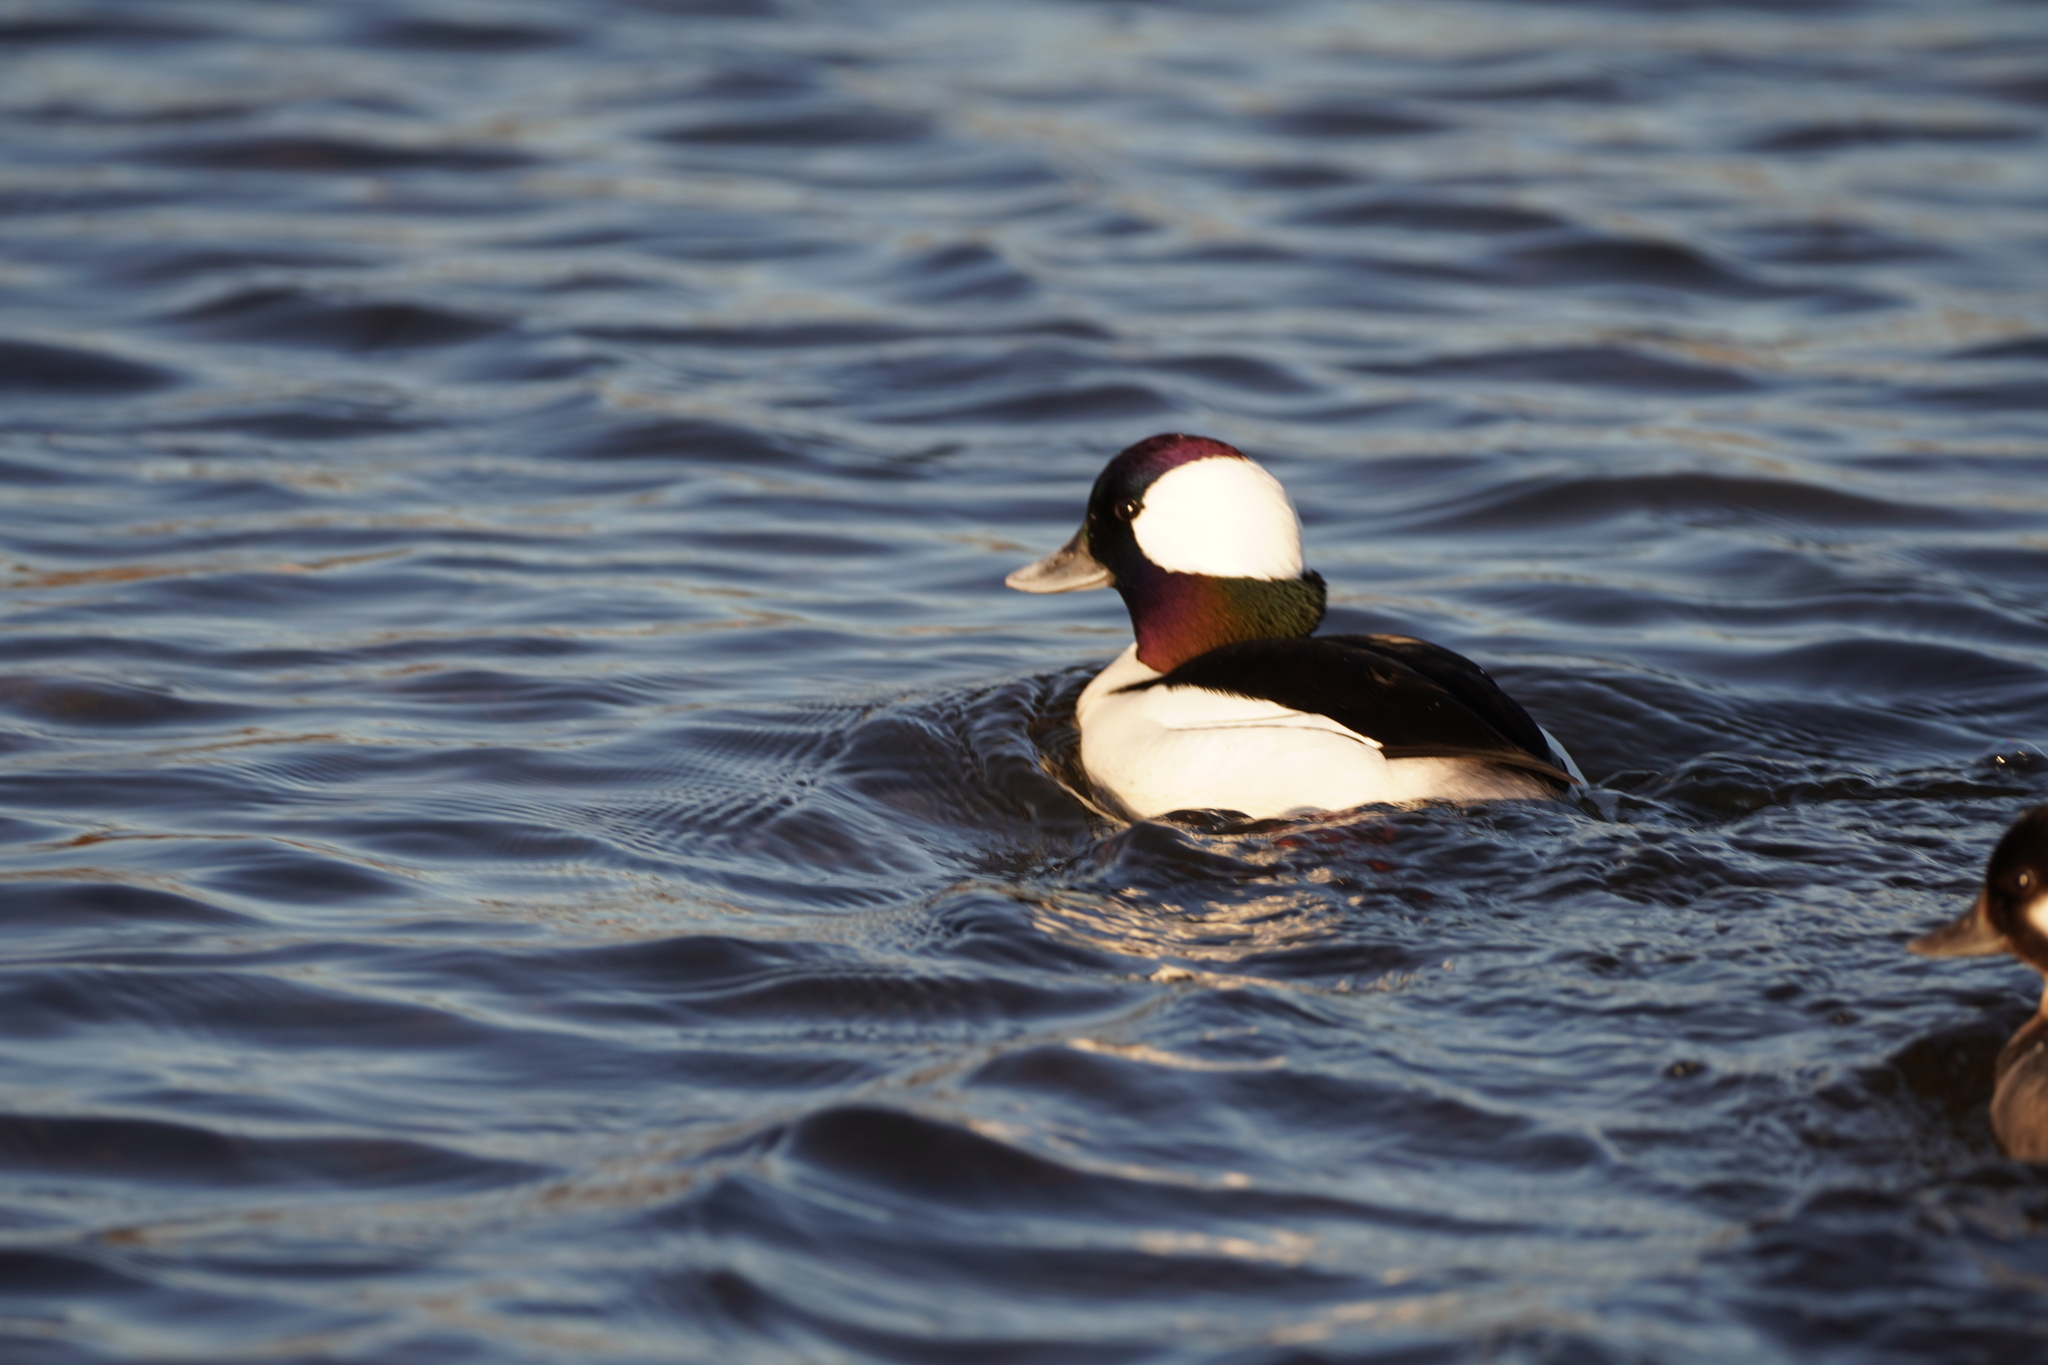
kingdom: Animalia
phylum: Chordata
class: Aves
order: Anseriformes
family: Anatidae
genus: Bucephala
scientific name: Bucephala albeola
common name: Bufflehead
